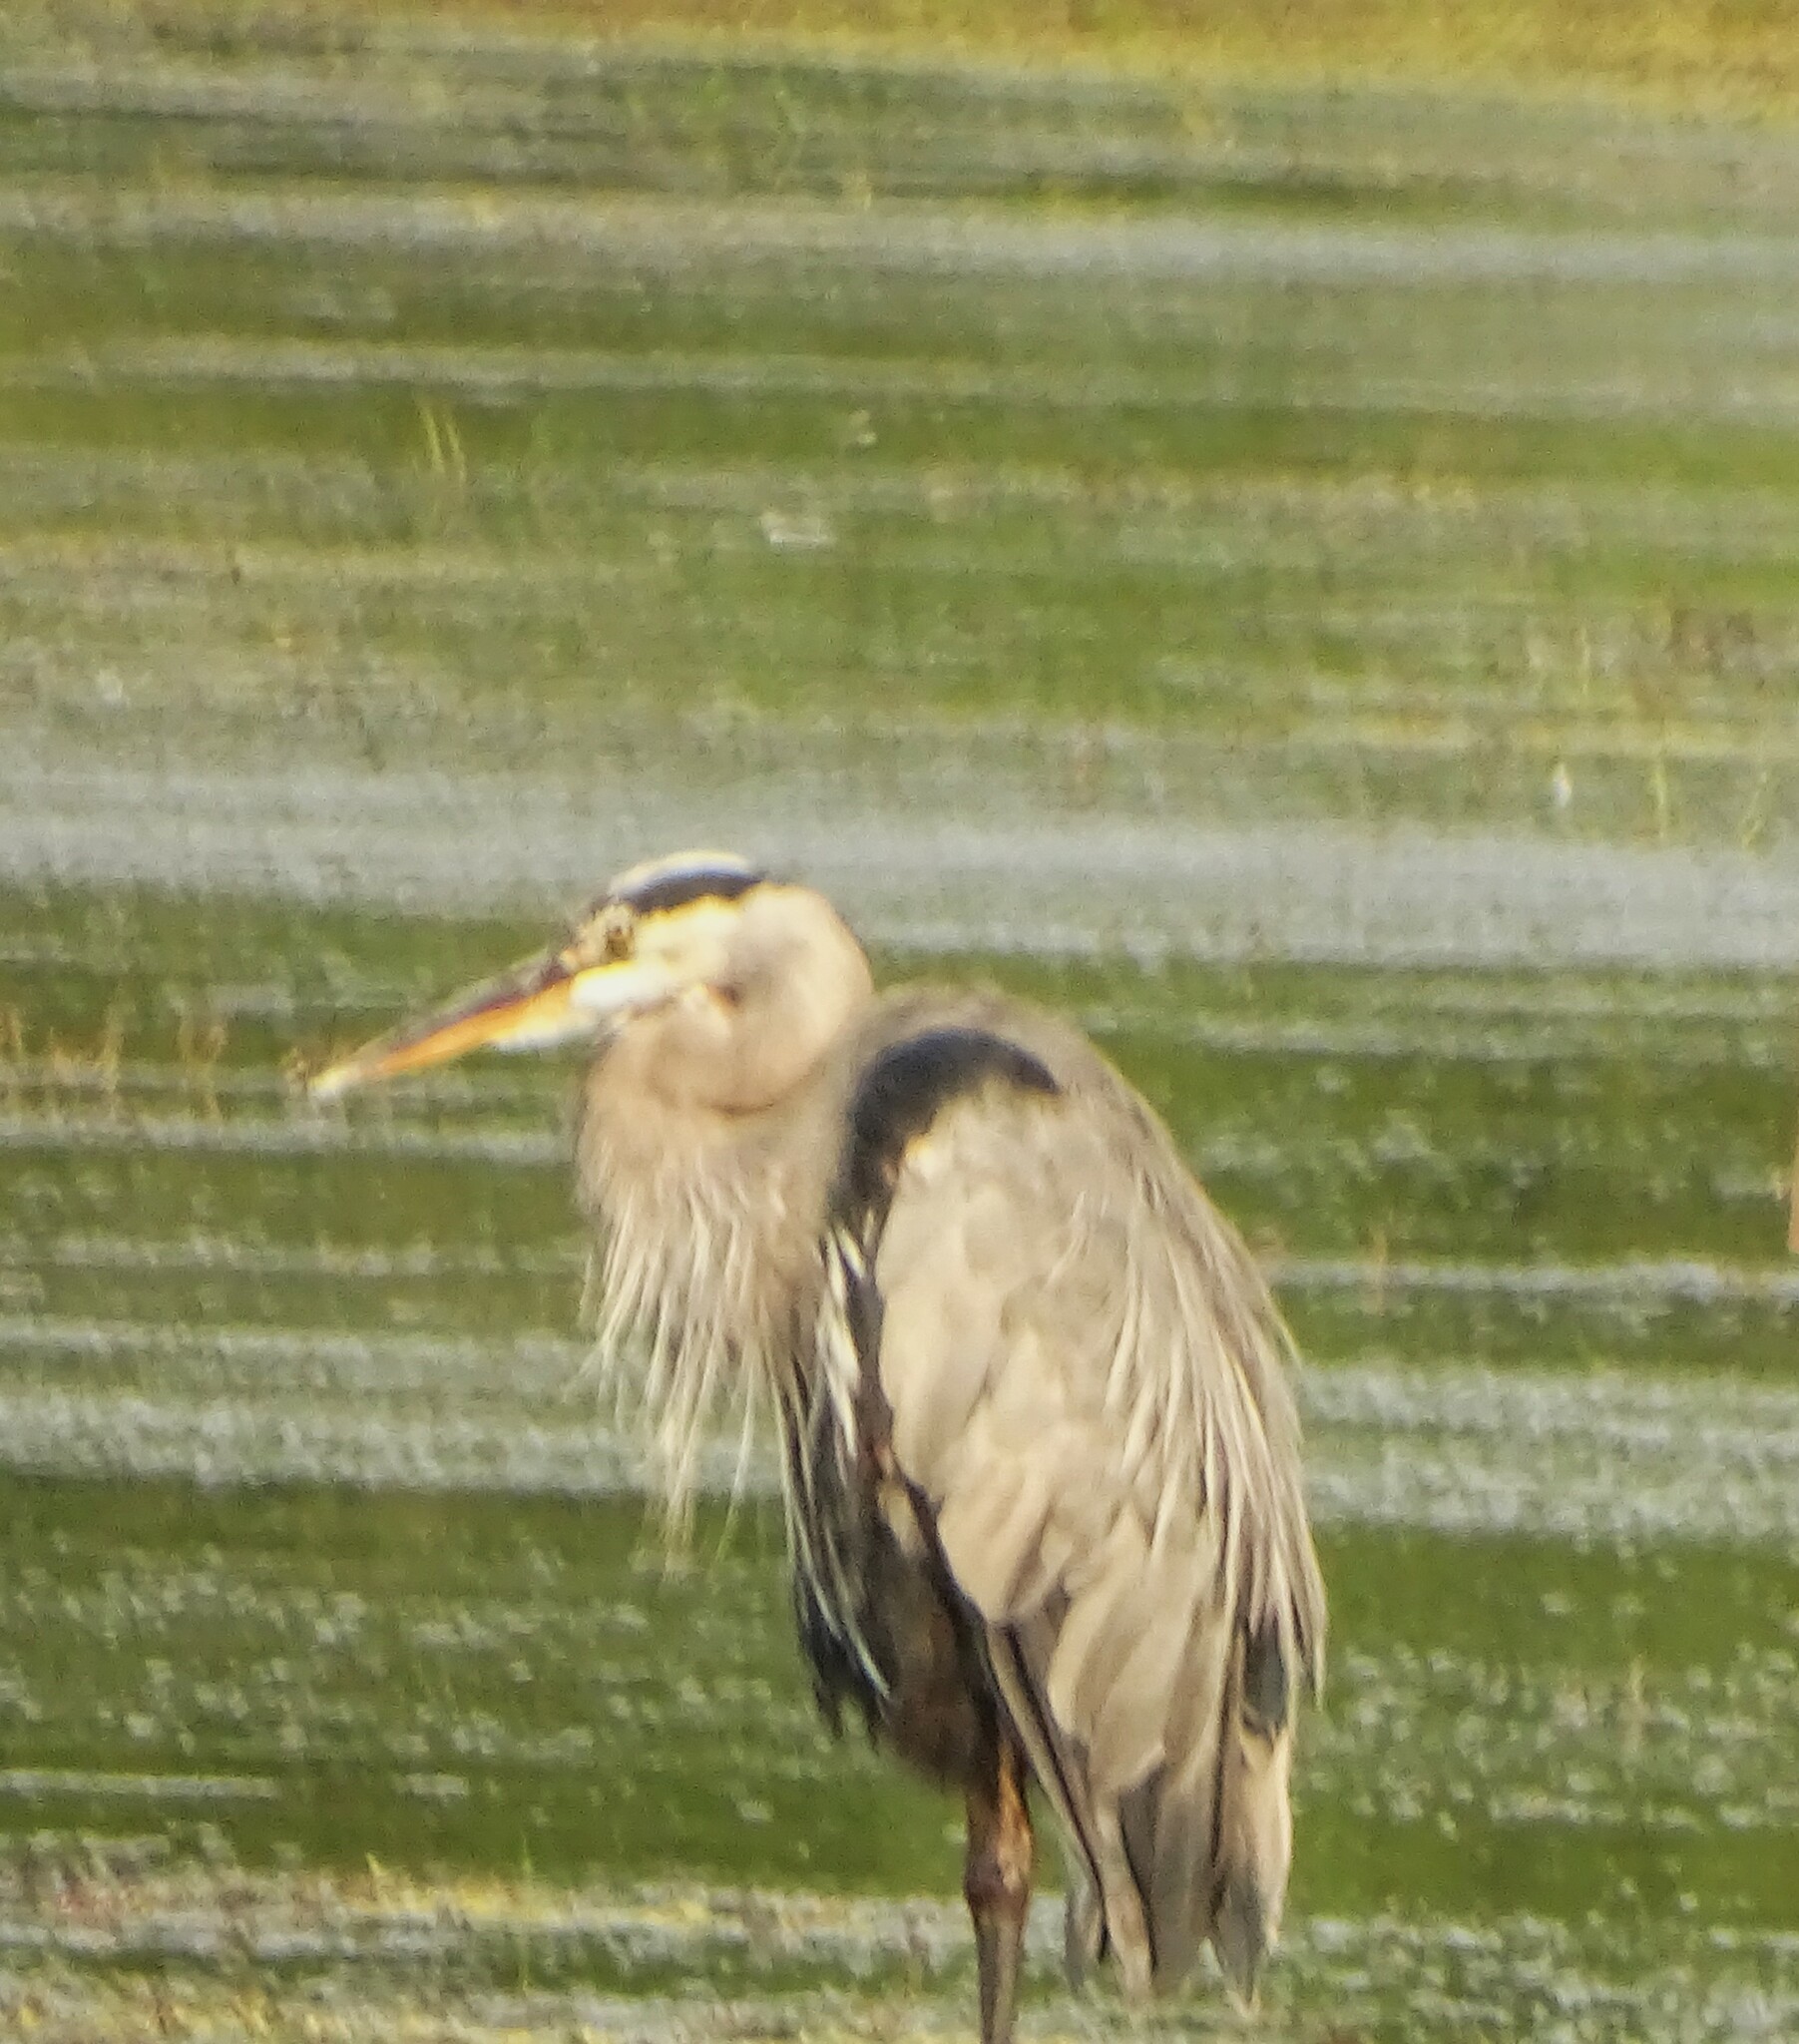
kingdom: Animalia
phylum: Chordata
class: Aves
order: Pelecaniformes
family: Ardeidae
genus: Ardea
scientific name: Ardea herodias
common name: Great blue heron
